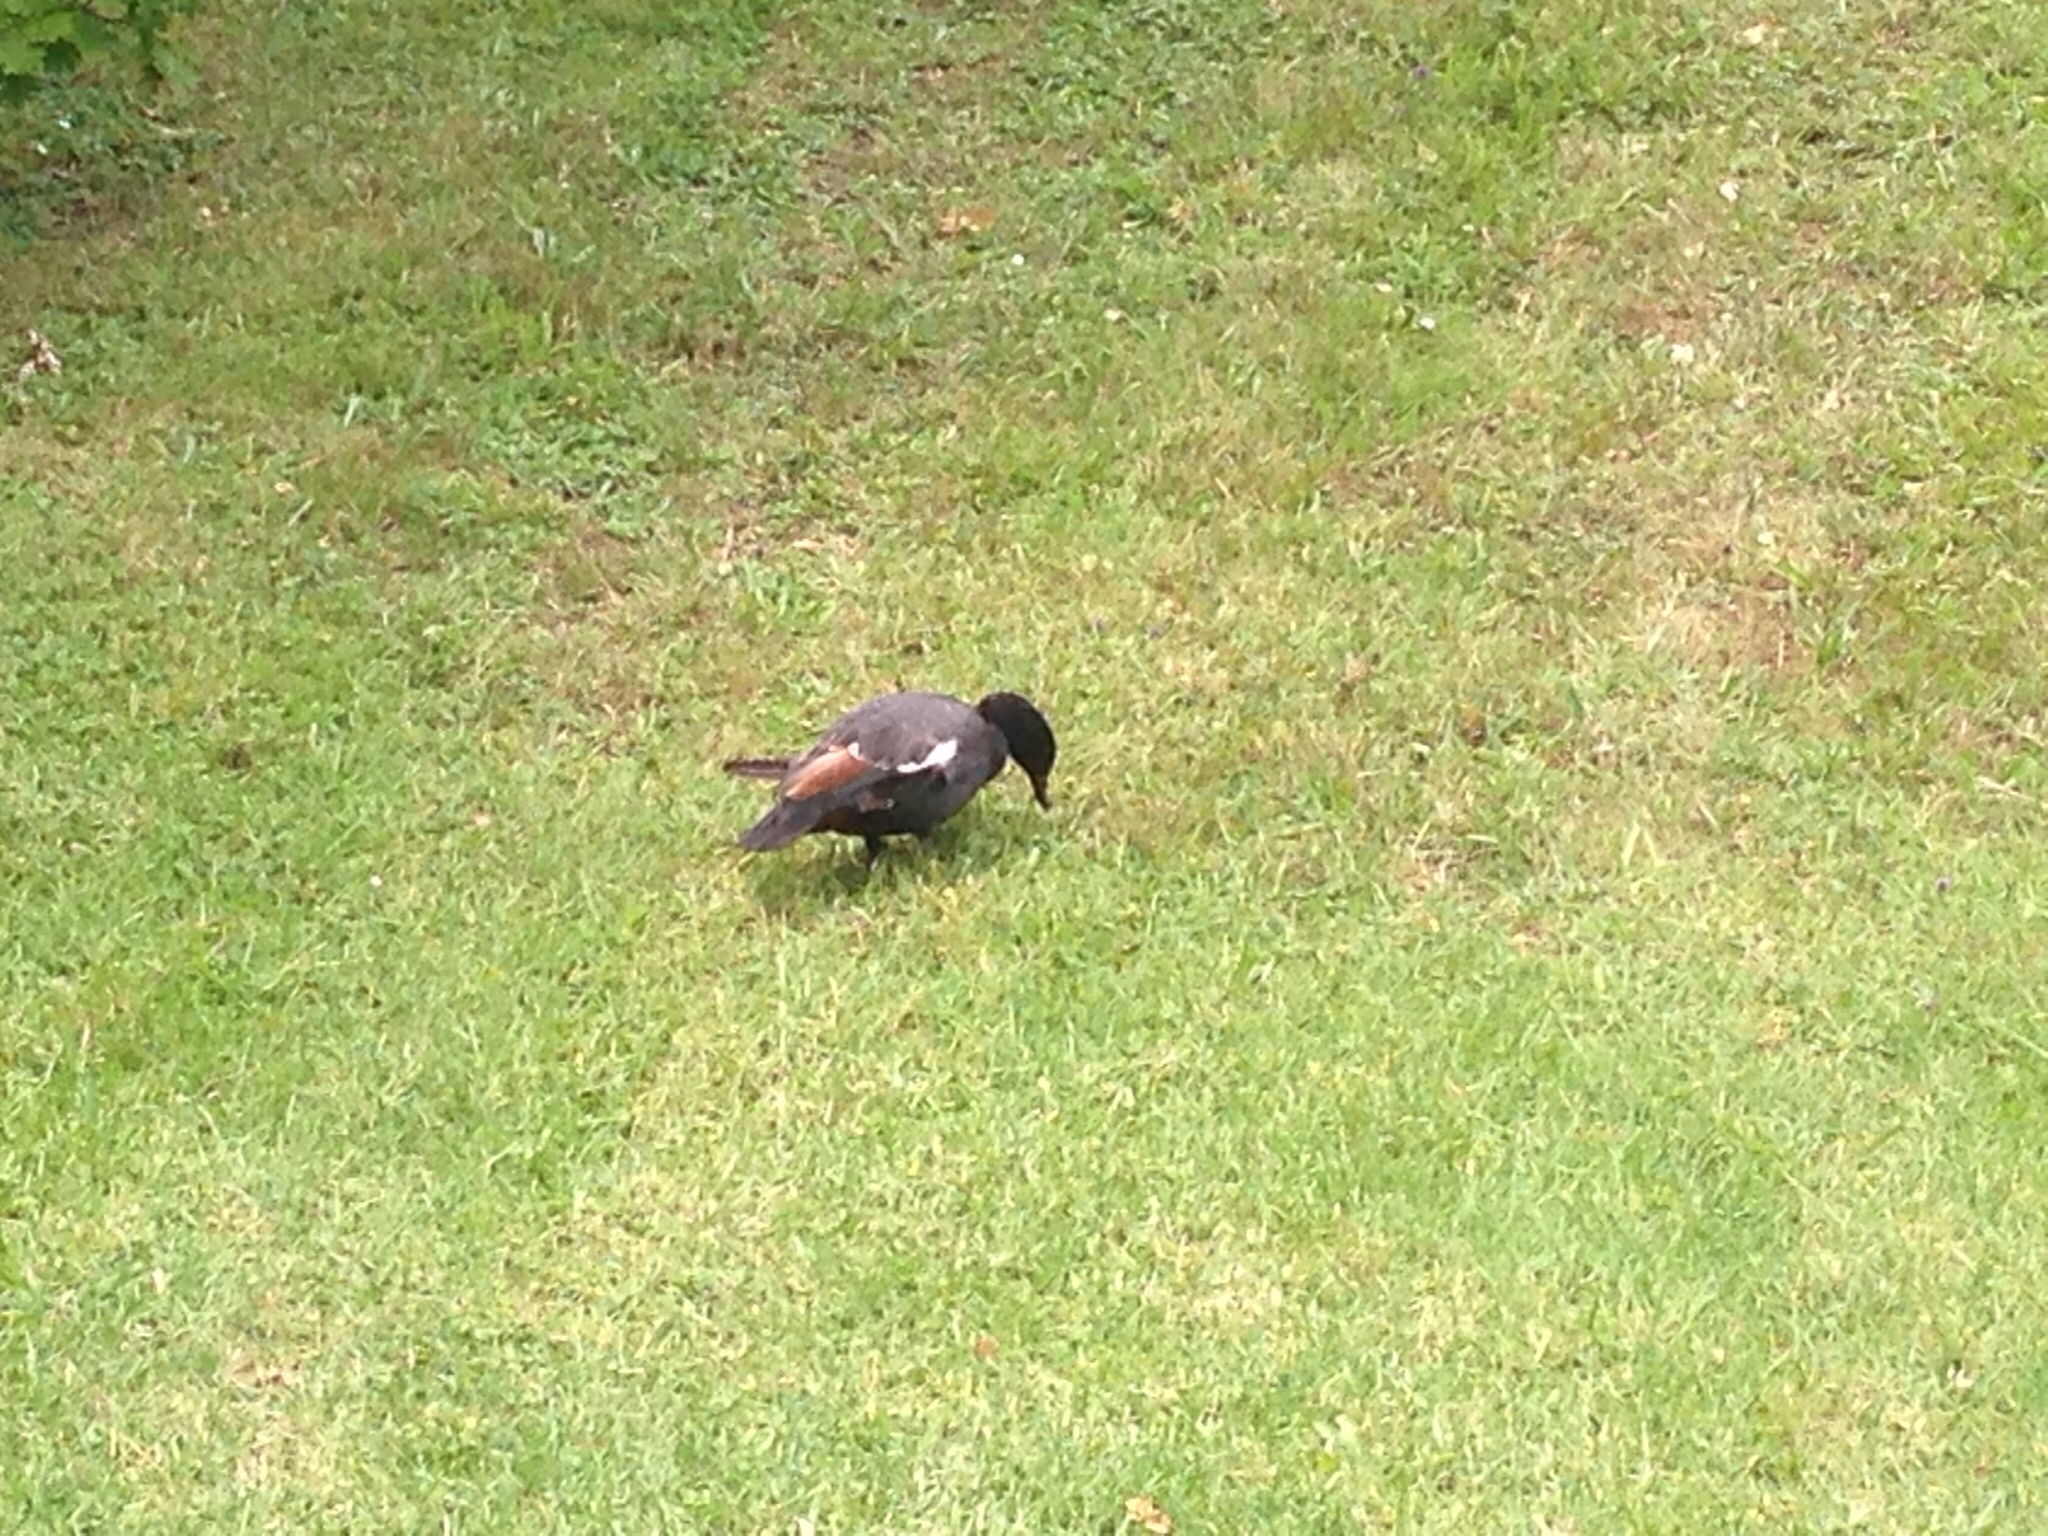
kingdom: Animalia
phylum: Chordata
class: Aves
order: Anseriformes
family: Anatidae
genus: Tadorna
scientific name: Tadorna variegata
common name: Paradise shelduck
